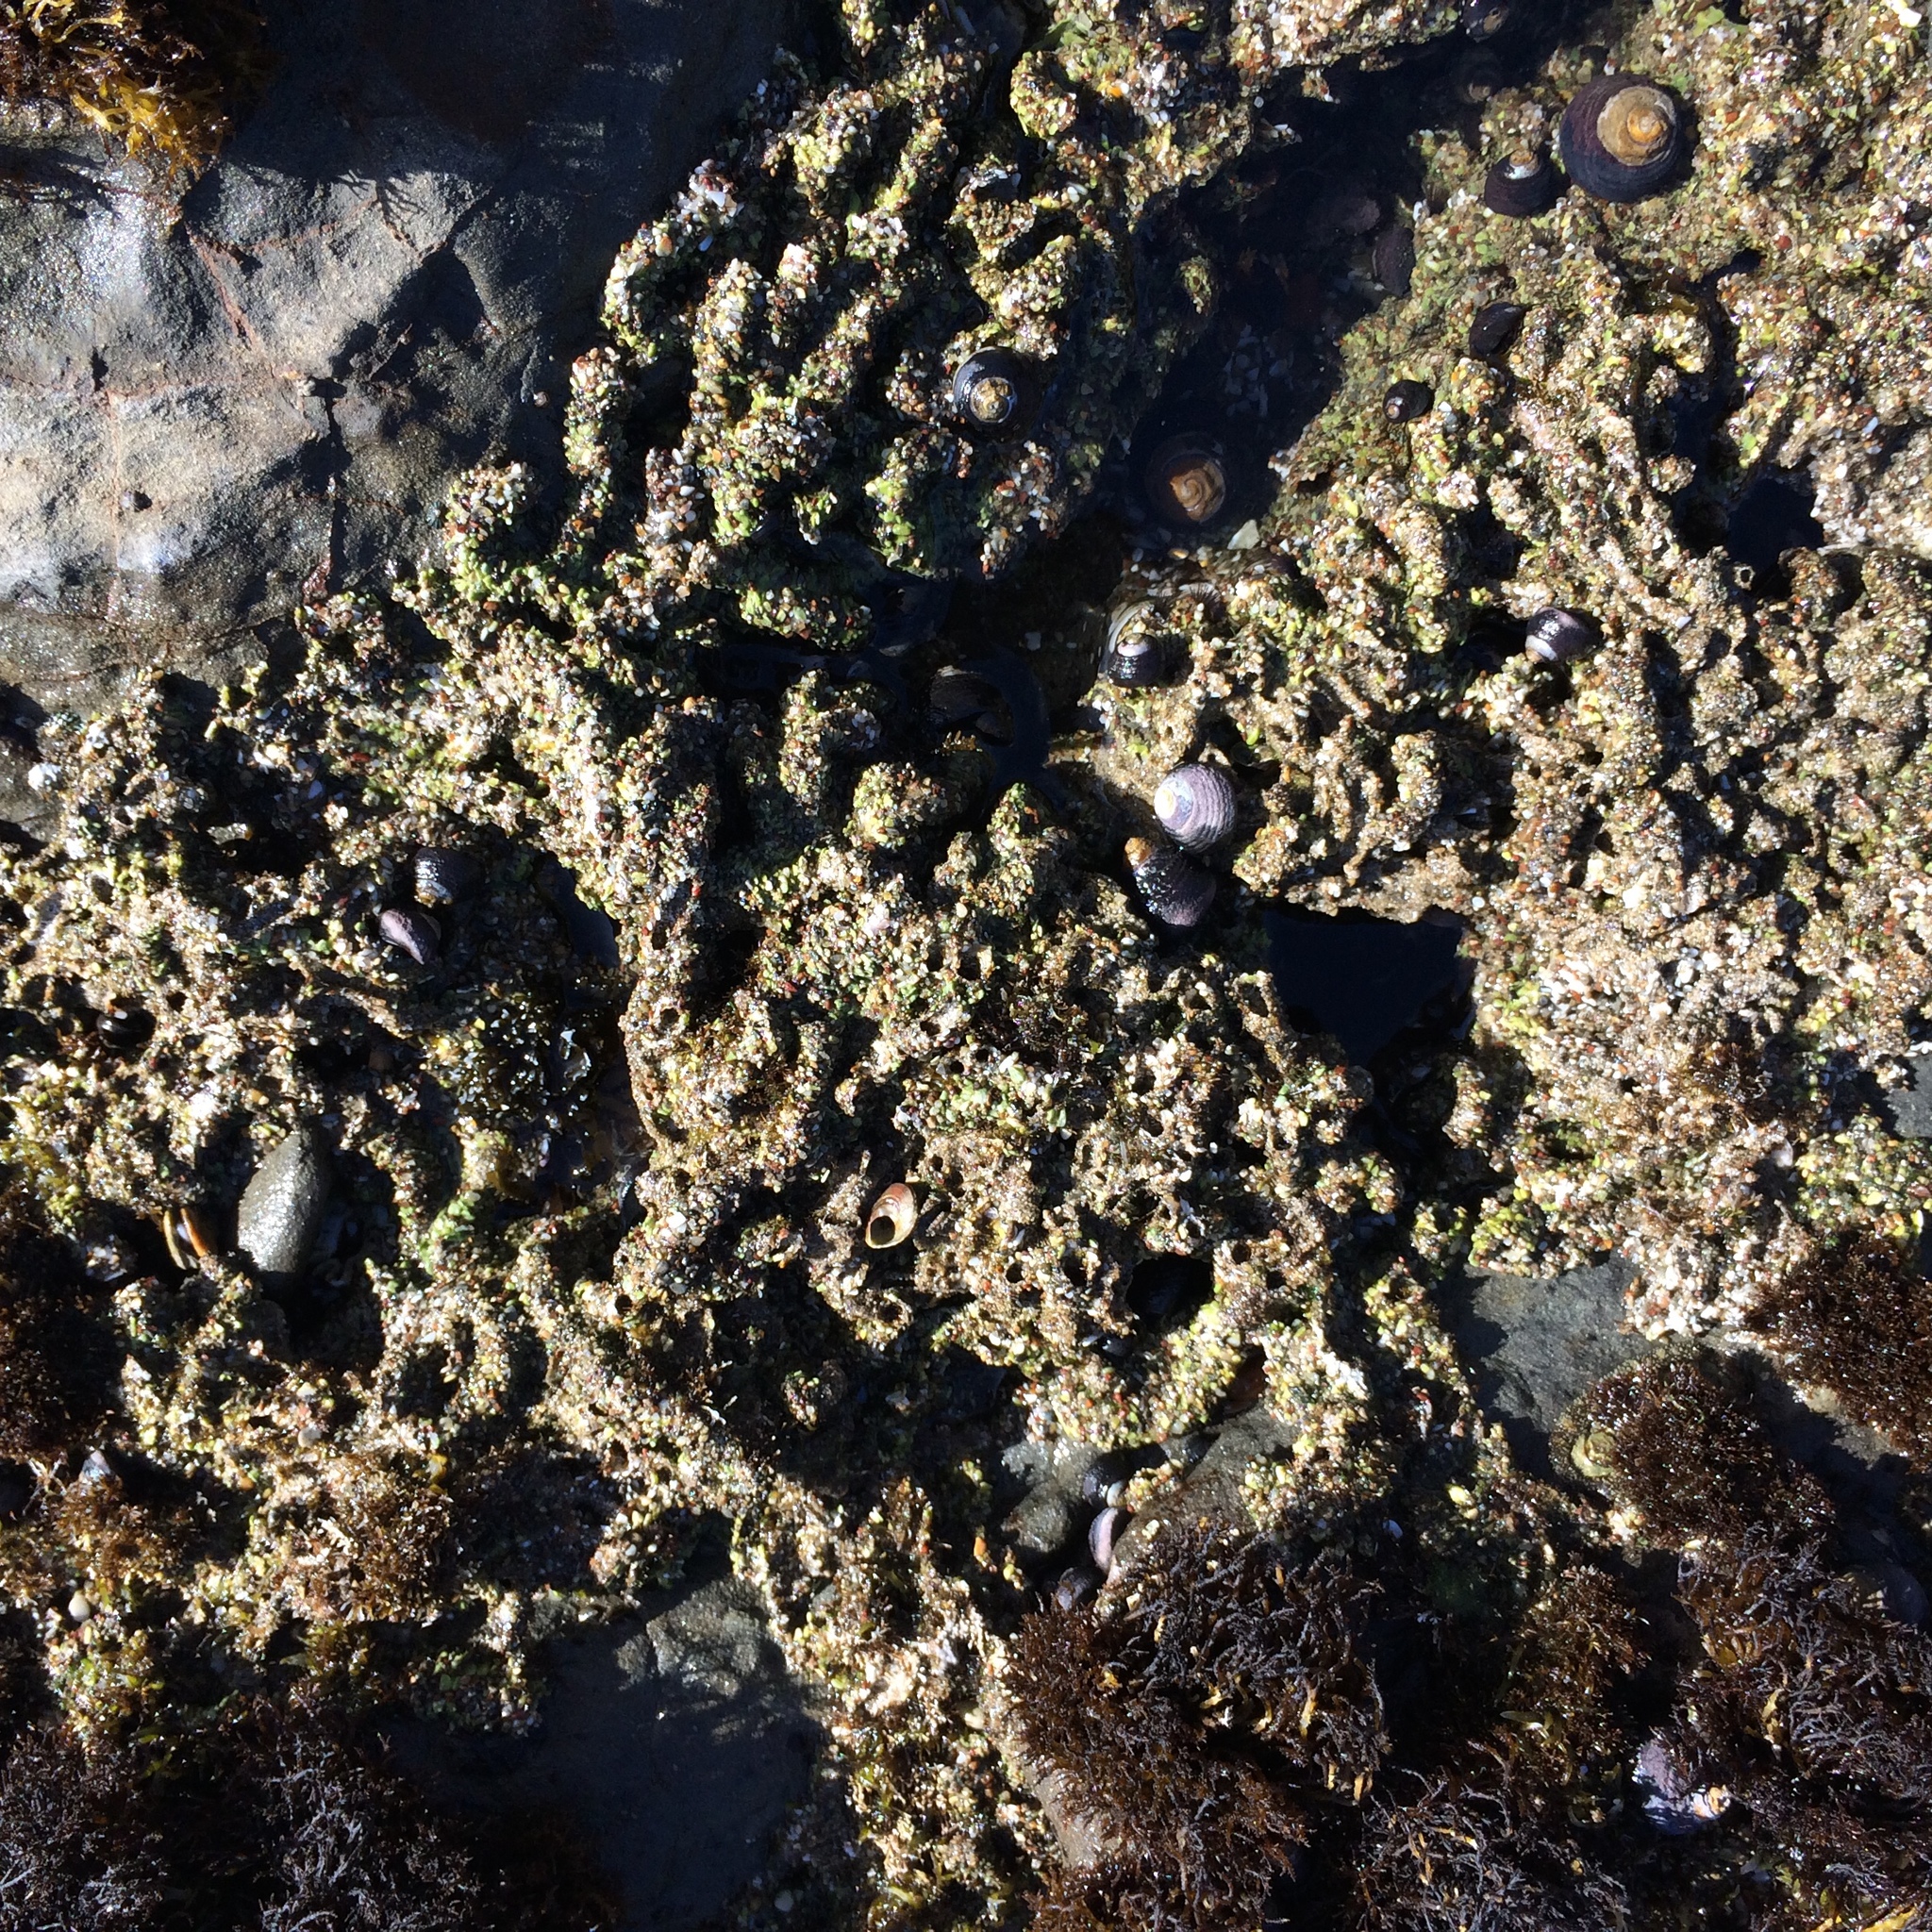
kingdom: Animalia
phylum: Annelida
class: Polychaeta
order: Sabellida
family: Sabellariidae
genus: Phragmatopoma
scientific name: Phragmatopoma californica
